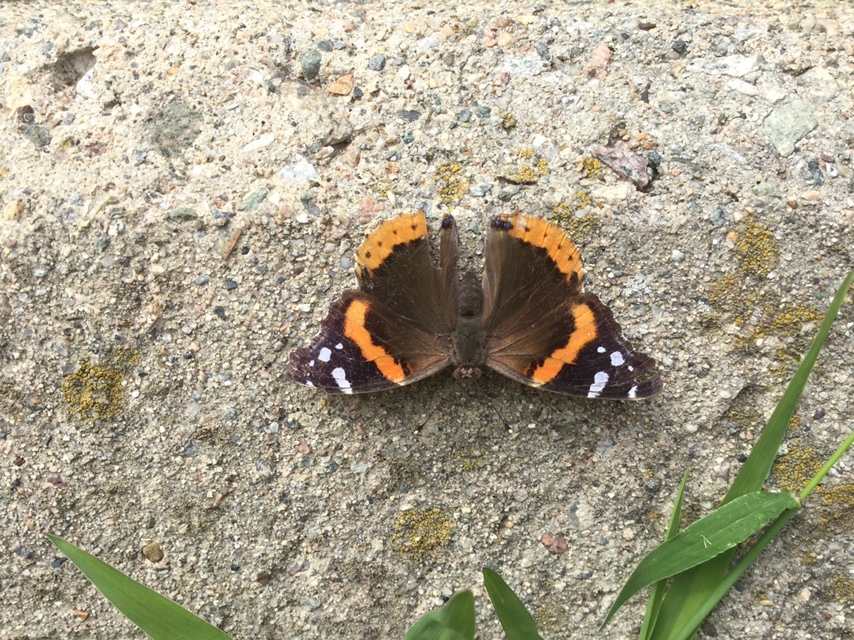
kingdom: Animalia
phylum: Arthropoda
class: Insecta
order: Lepidoptera
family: Nymphalidae
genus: Vanessa
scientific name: Vanessa atalanta
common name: Red admiral
